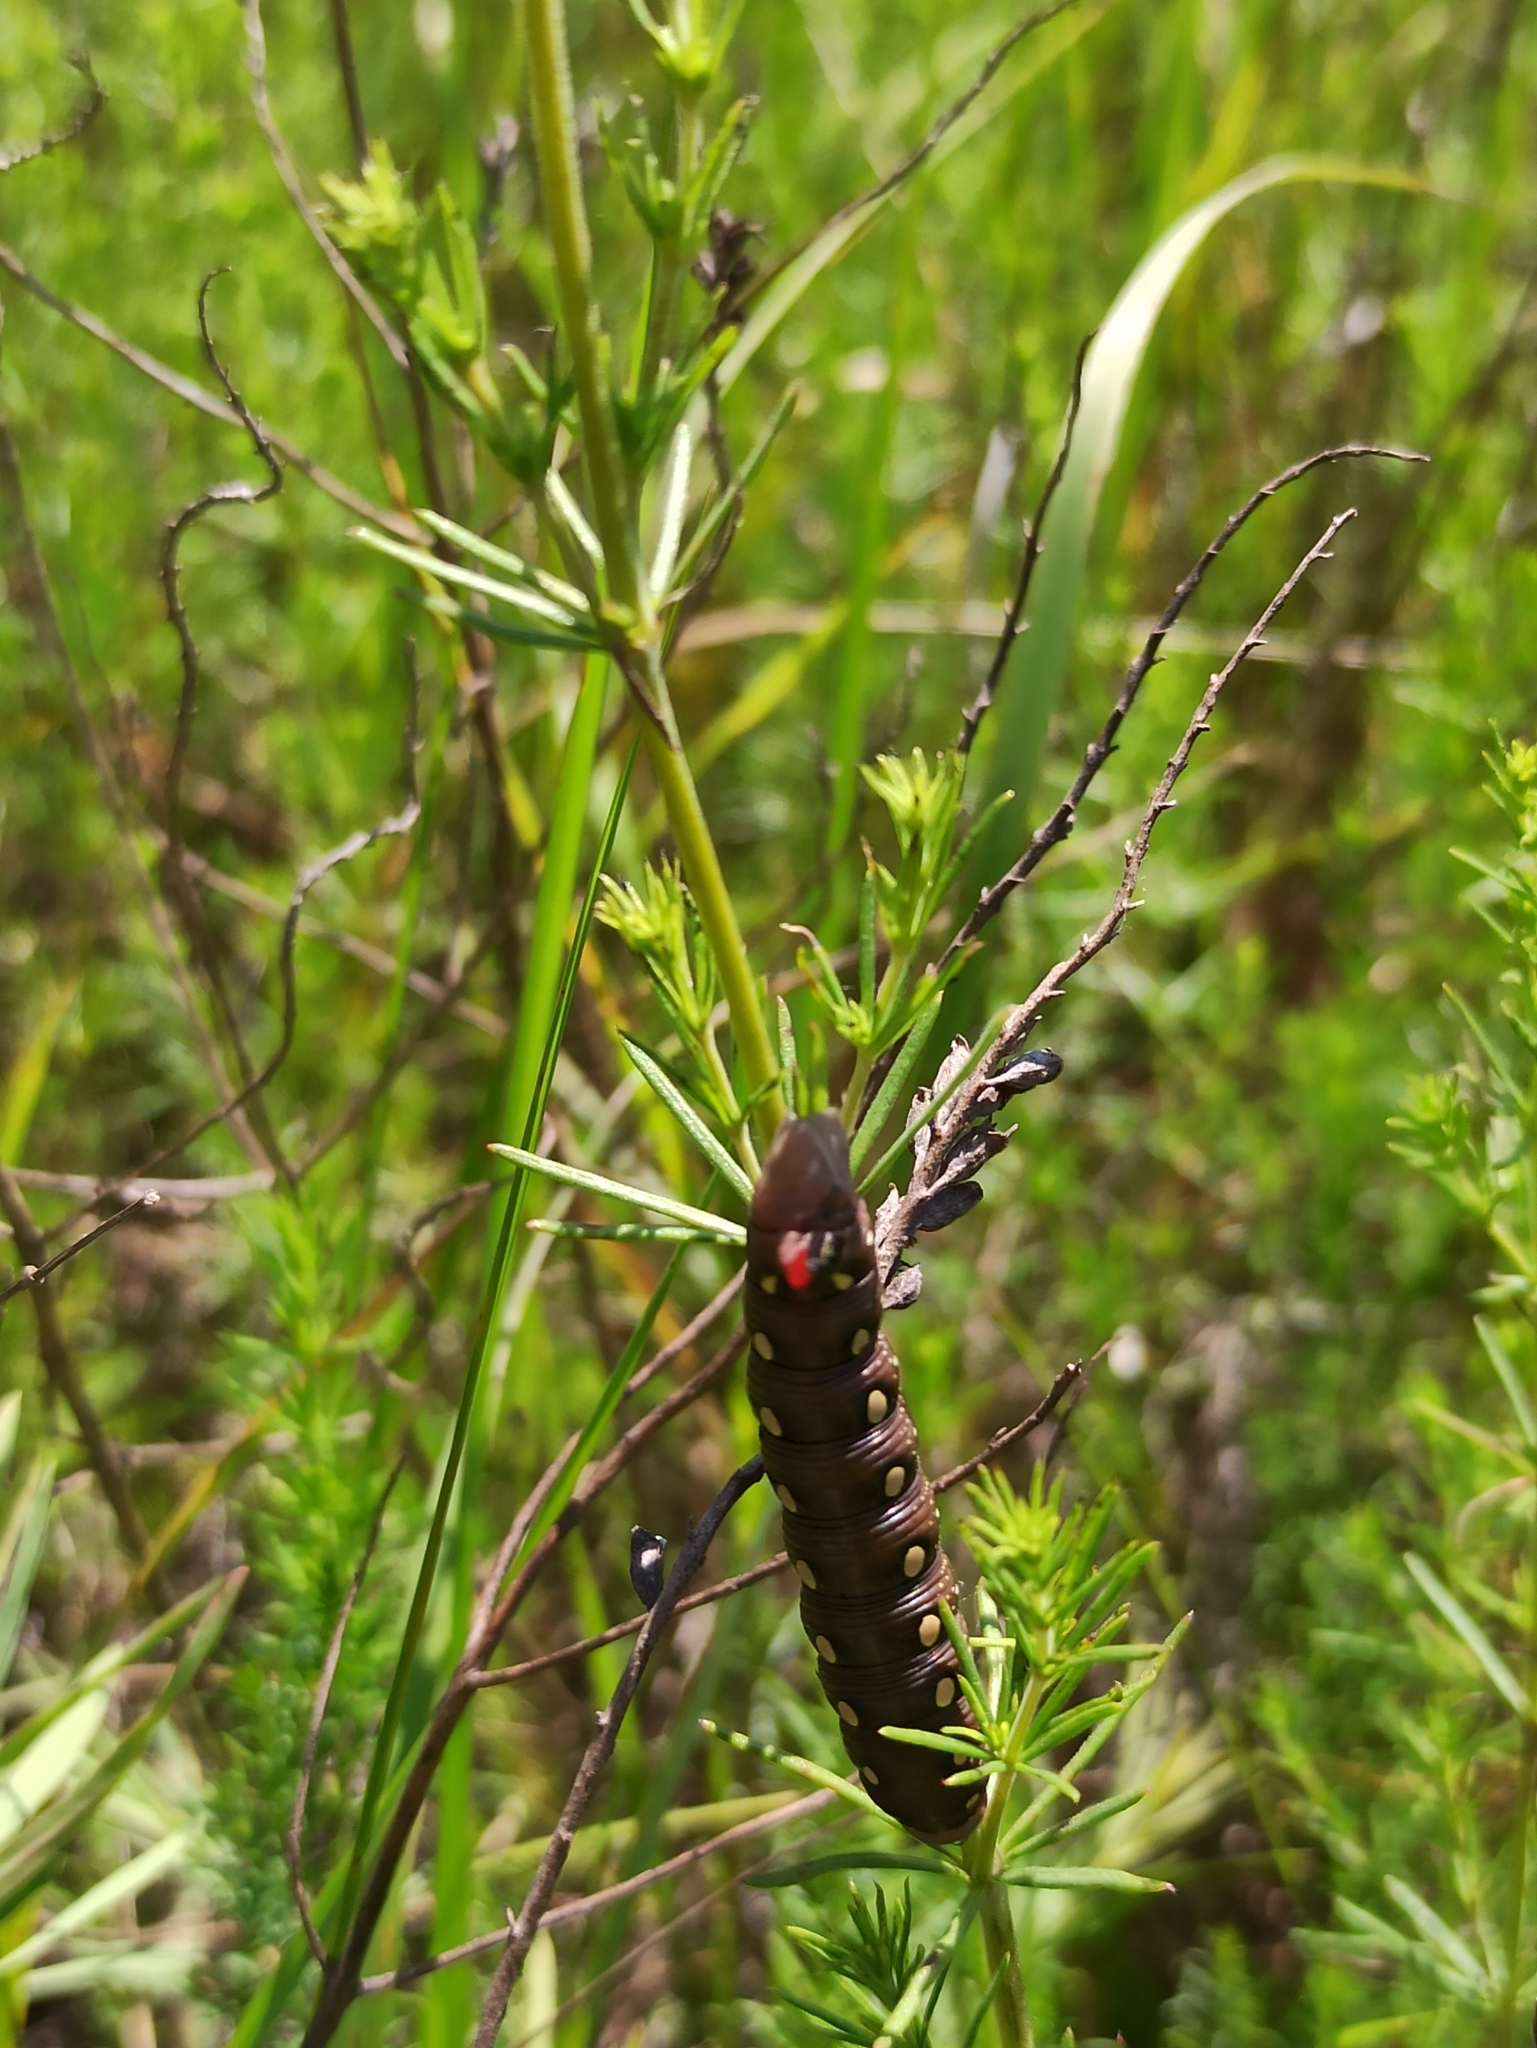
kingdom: Animalia
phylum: Arthropoda
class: Insecta
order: Lepidoptera
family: Sphingidae
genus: Hyles
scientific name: Hyles gallii
